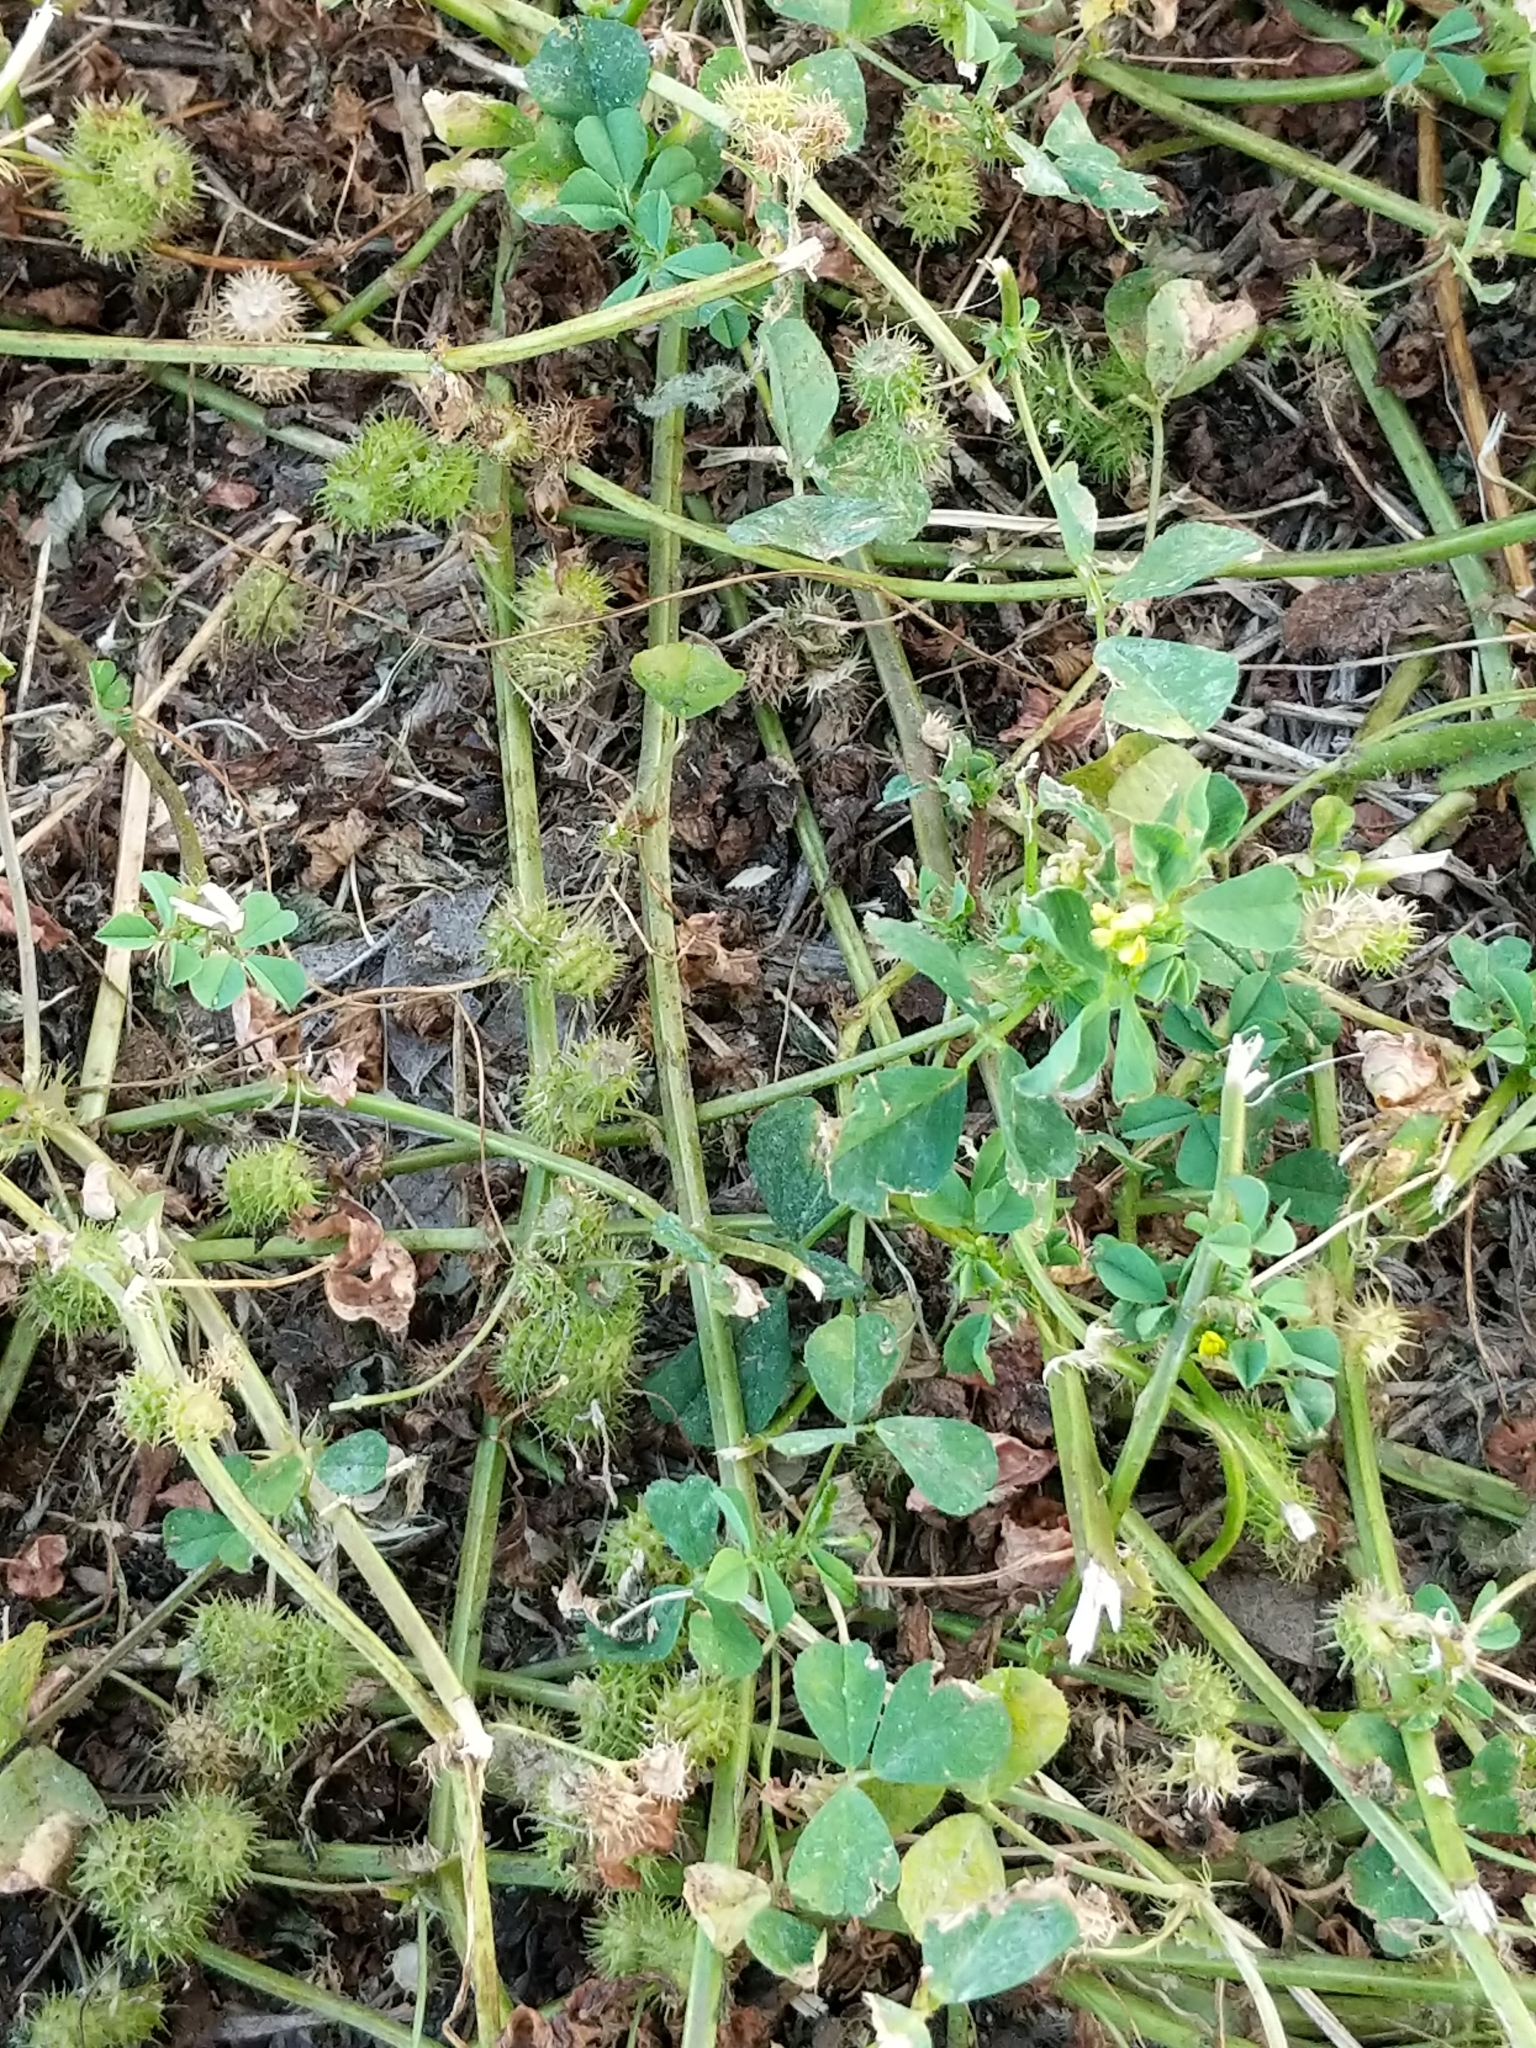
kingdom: Plantae
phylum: Tracheophyta
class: Magnoliopsida
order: Fabales
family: Fabaceae
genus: Medicago
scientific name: Medicago polymorpha
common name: Burclover
